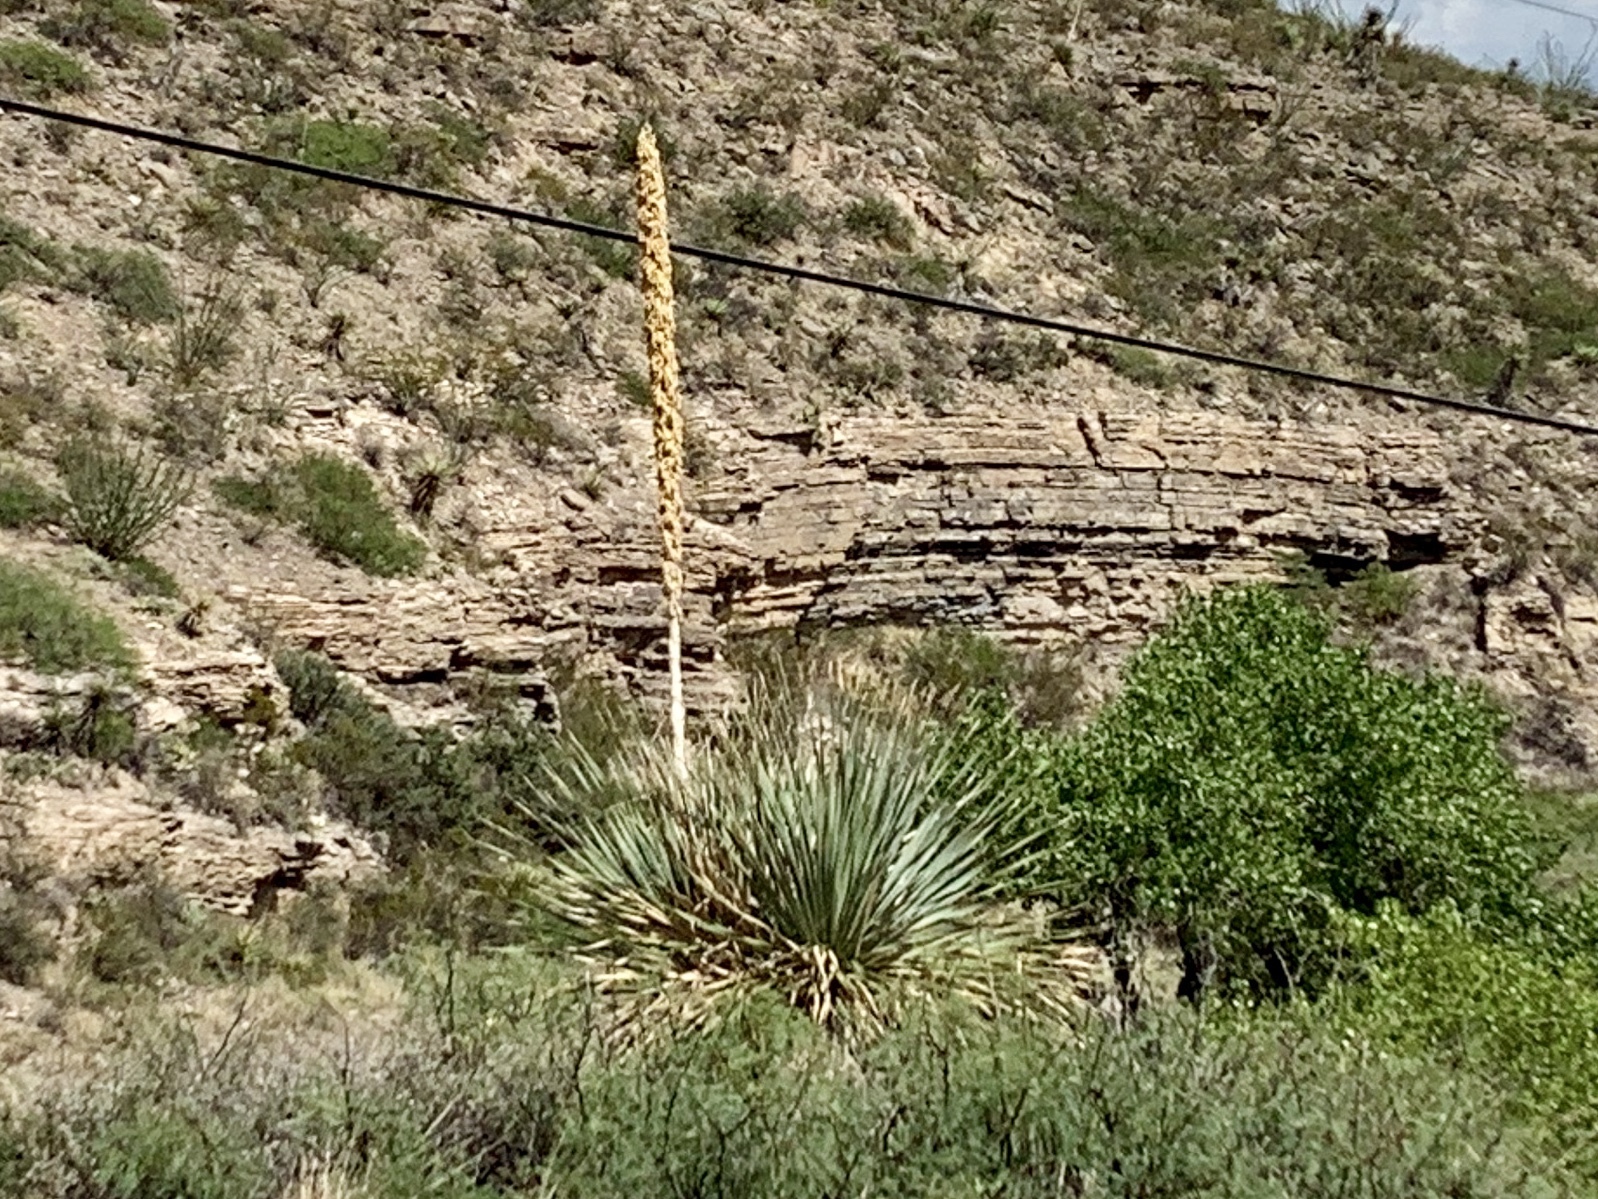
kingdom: Plantae
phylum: Tracheophyta
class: Liliopsida
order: Asparagales
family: Asparagaceae
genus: Dasylirion
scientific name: Dasylirion wheeleri
